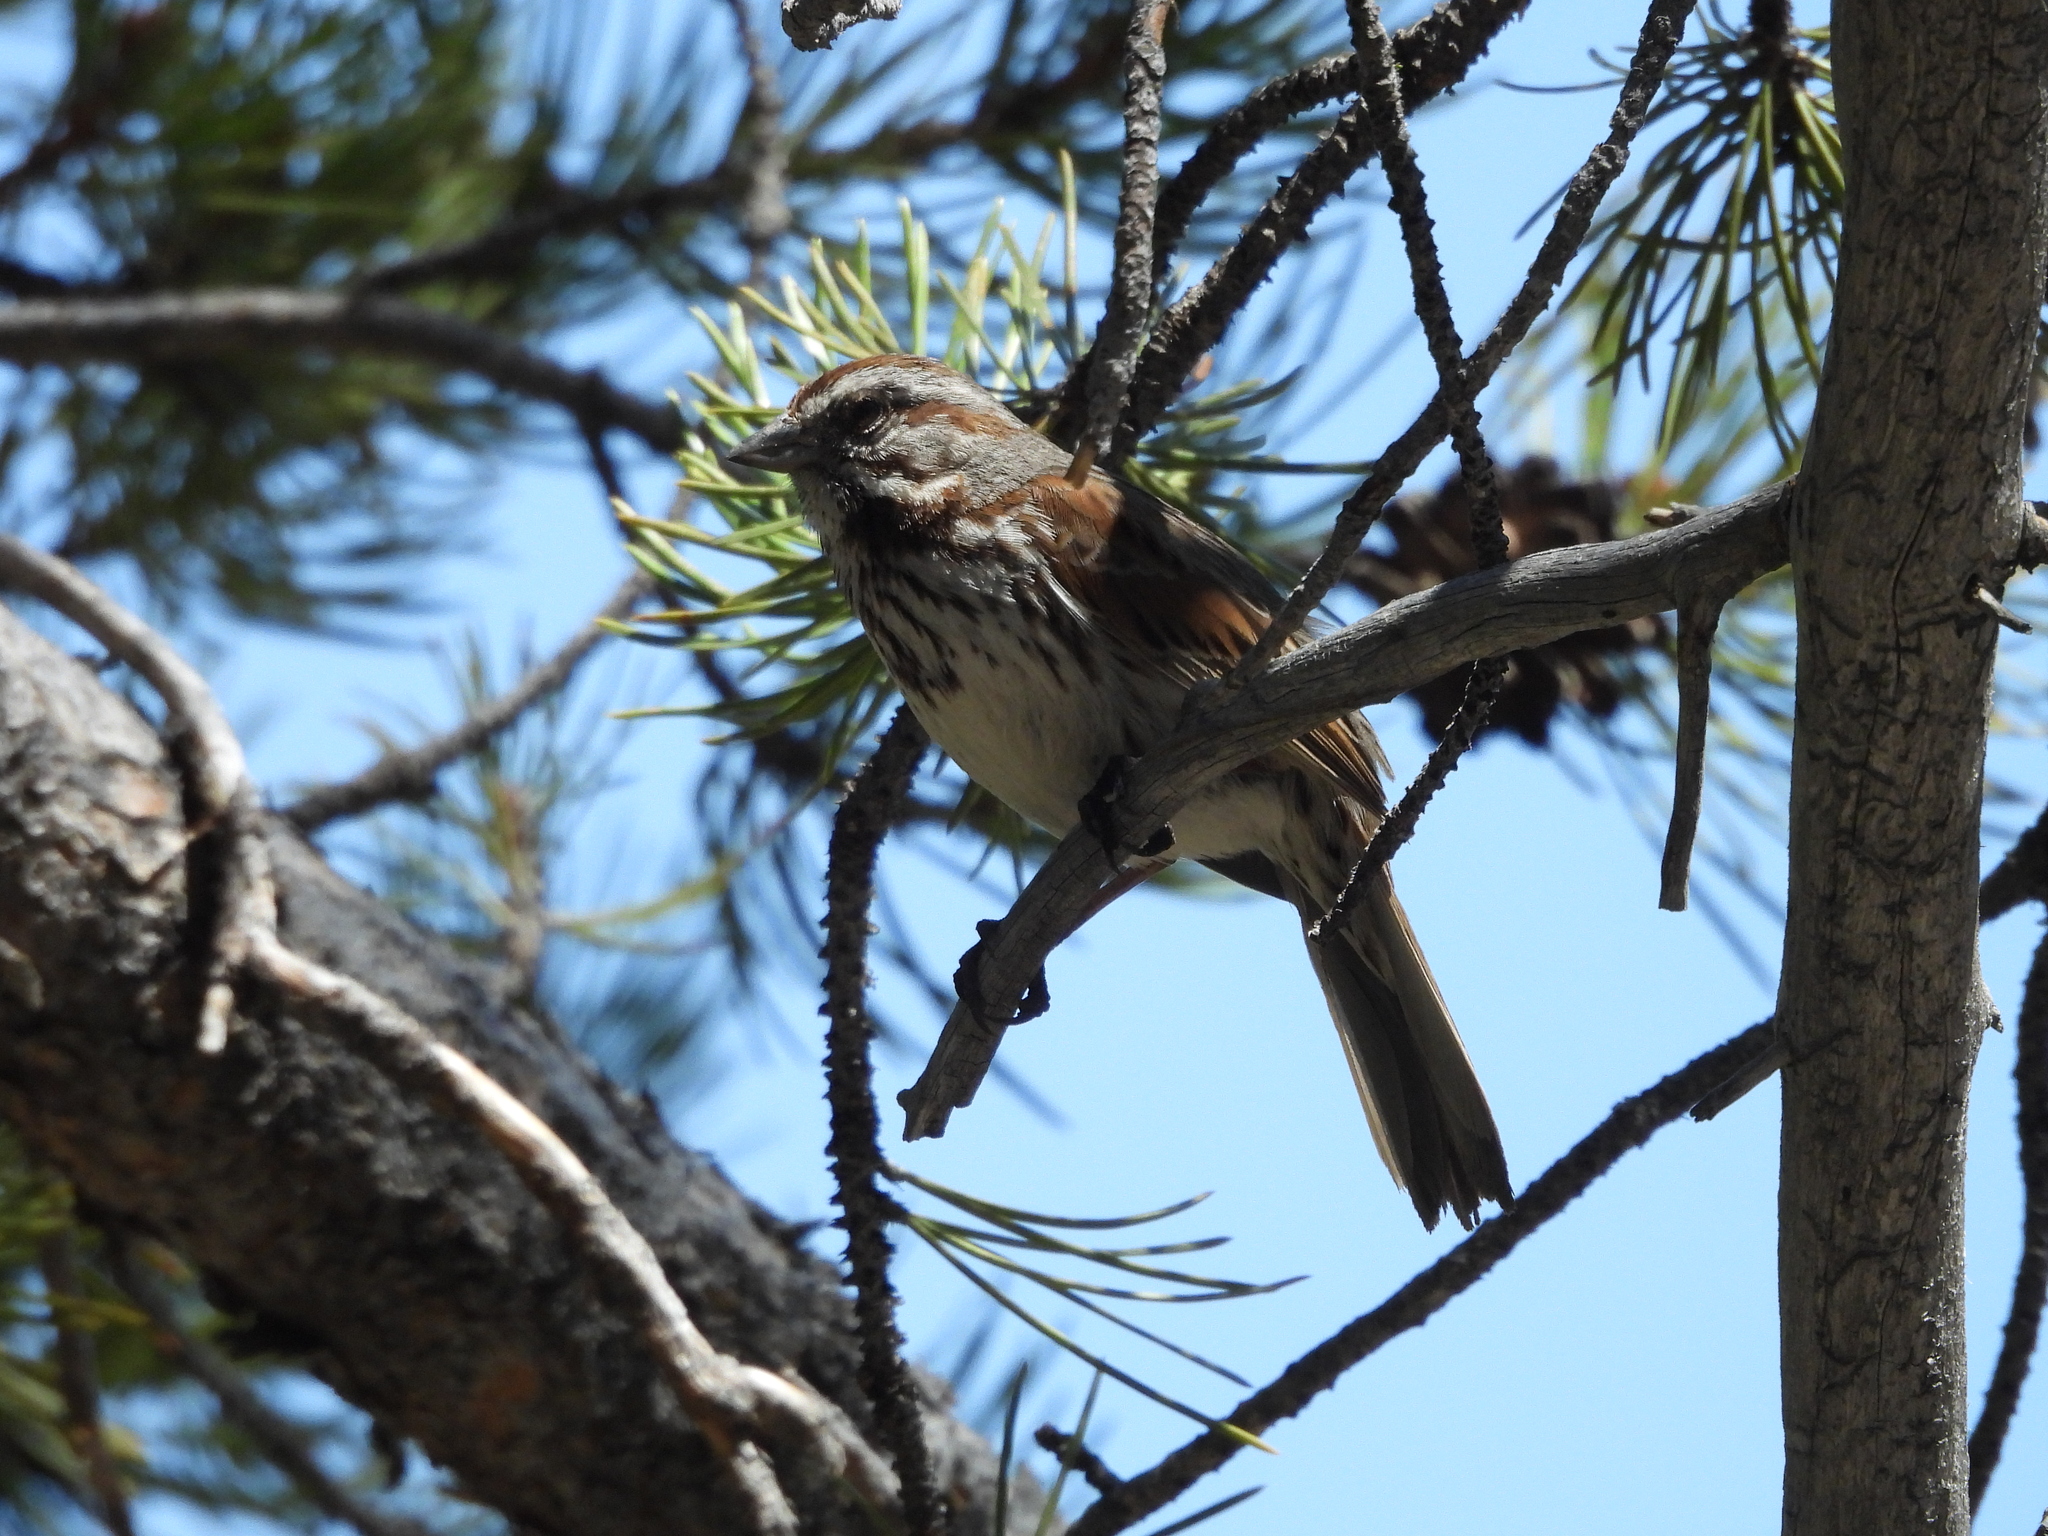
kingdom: Animalia
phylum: Chordata
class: Aves
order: Passeriformes
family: Passerellidae
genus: Melospiza
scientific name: Melospiza melodia
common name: Song sparrow
